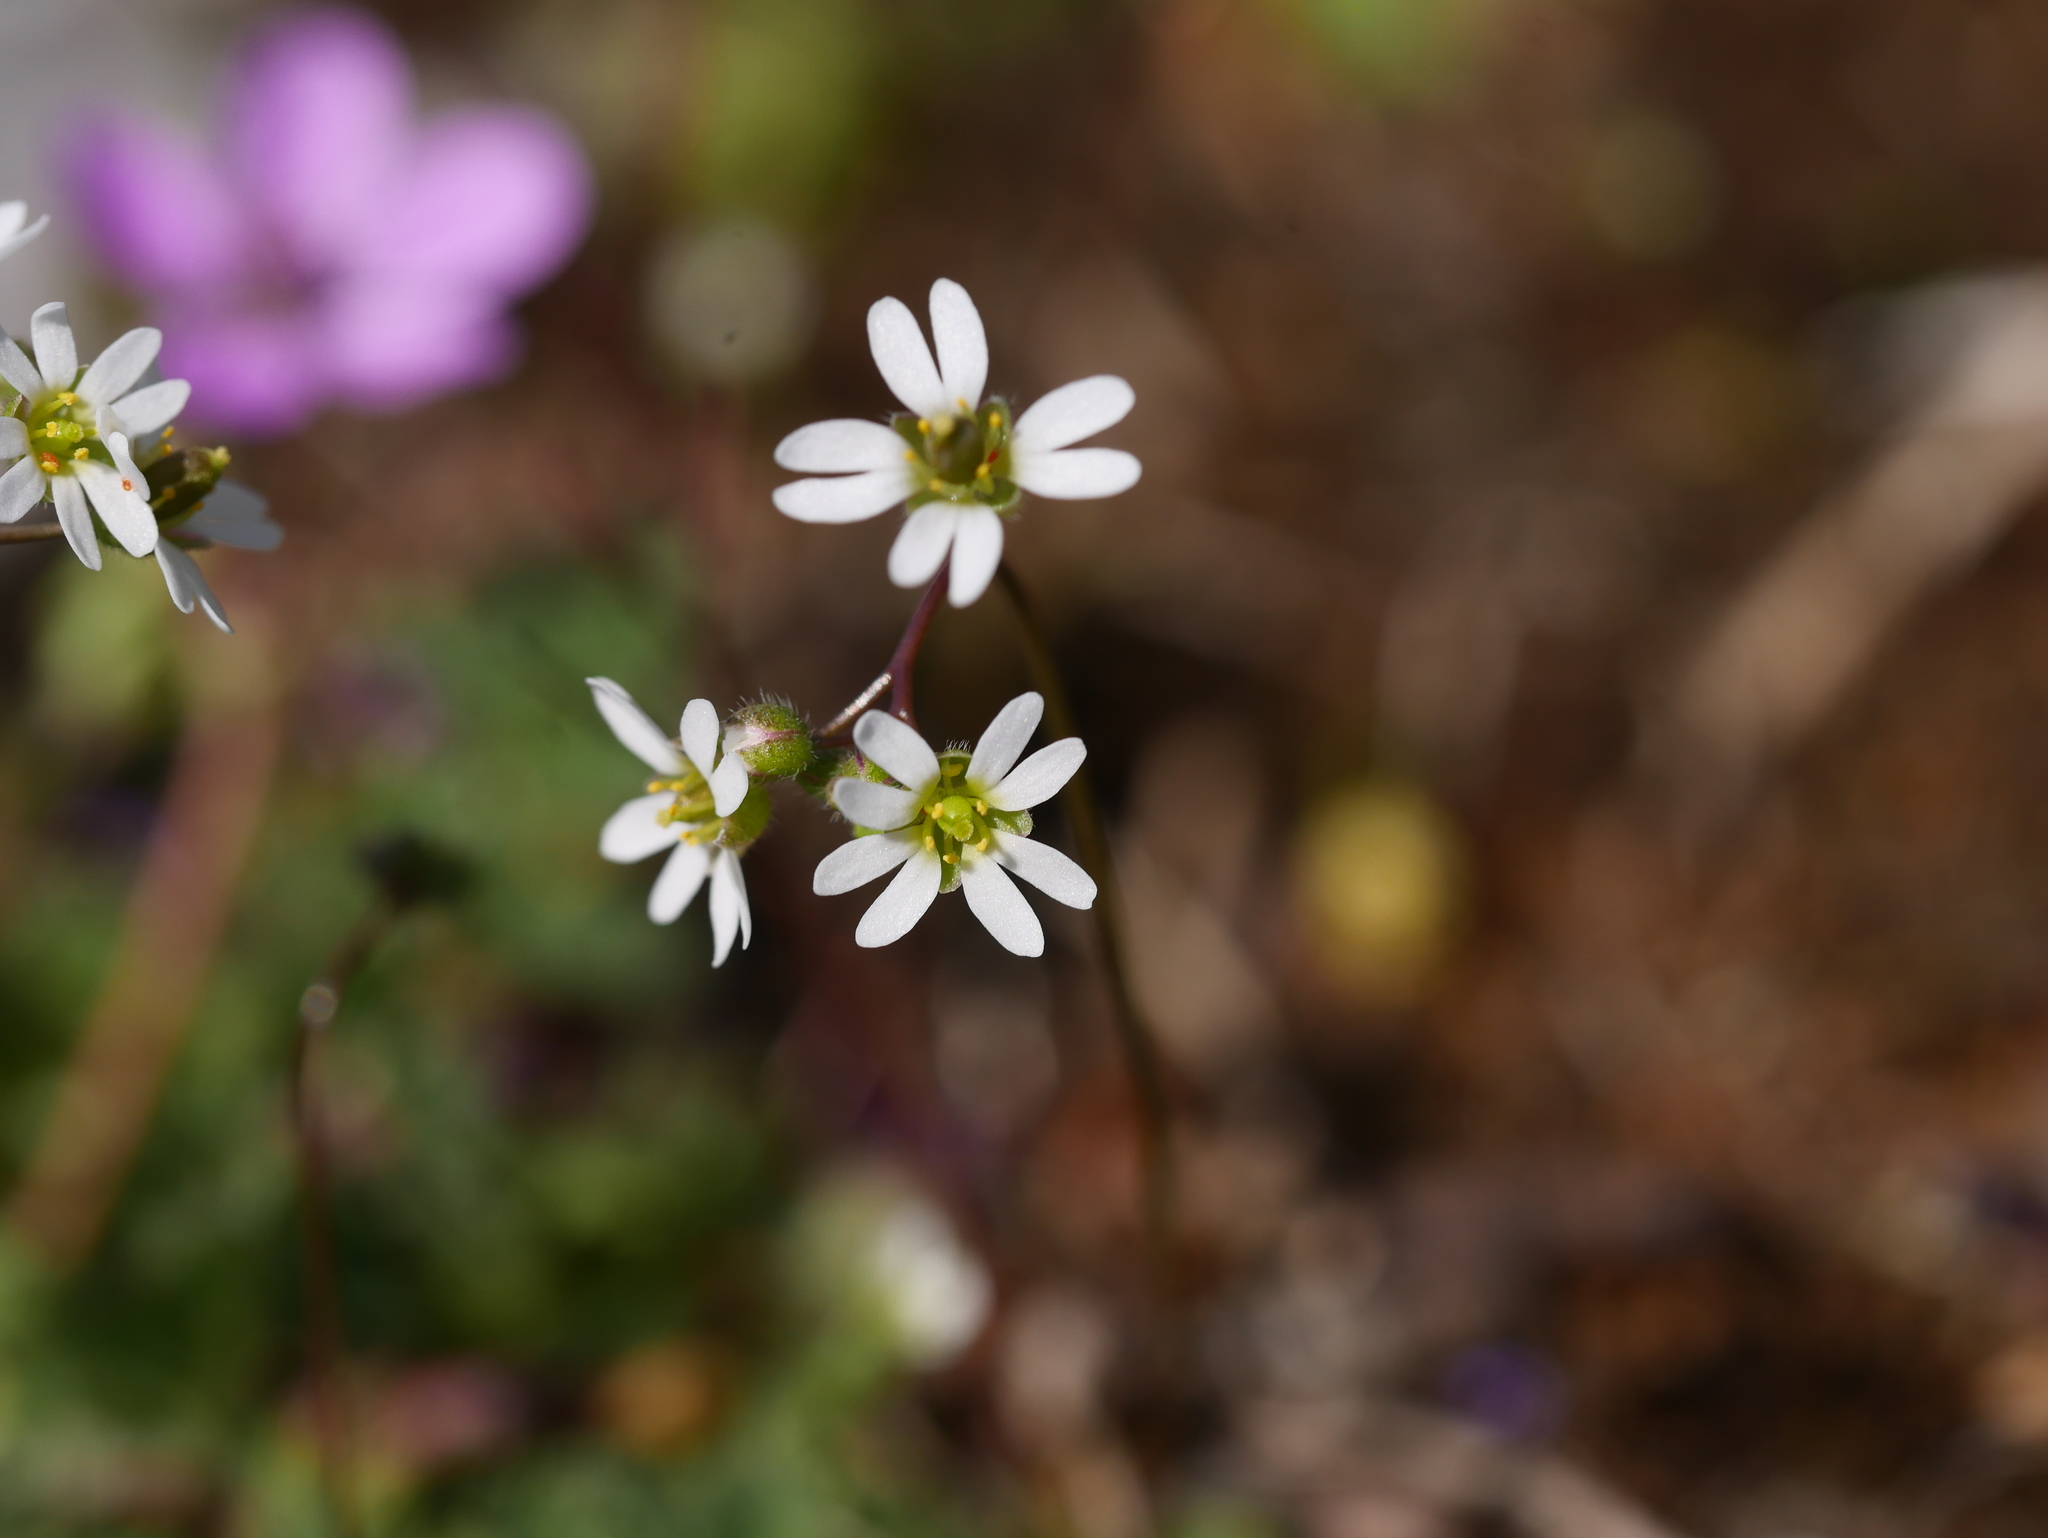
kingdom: Plantae
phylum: Tracheophyta
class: Magnoliopsida
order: Brassicales
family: Brassicaceae
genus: Draba
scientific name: Draba verna
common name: Spring draba
